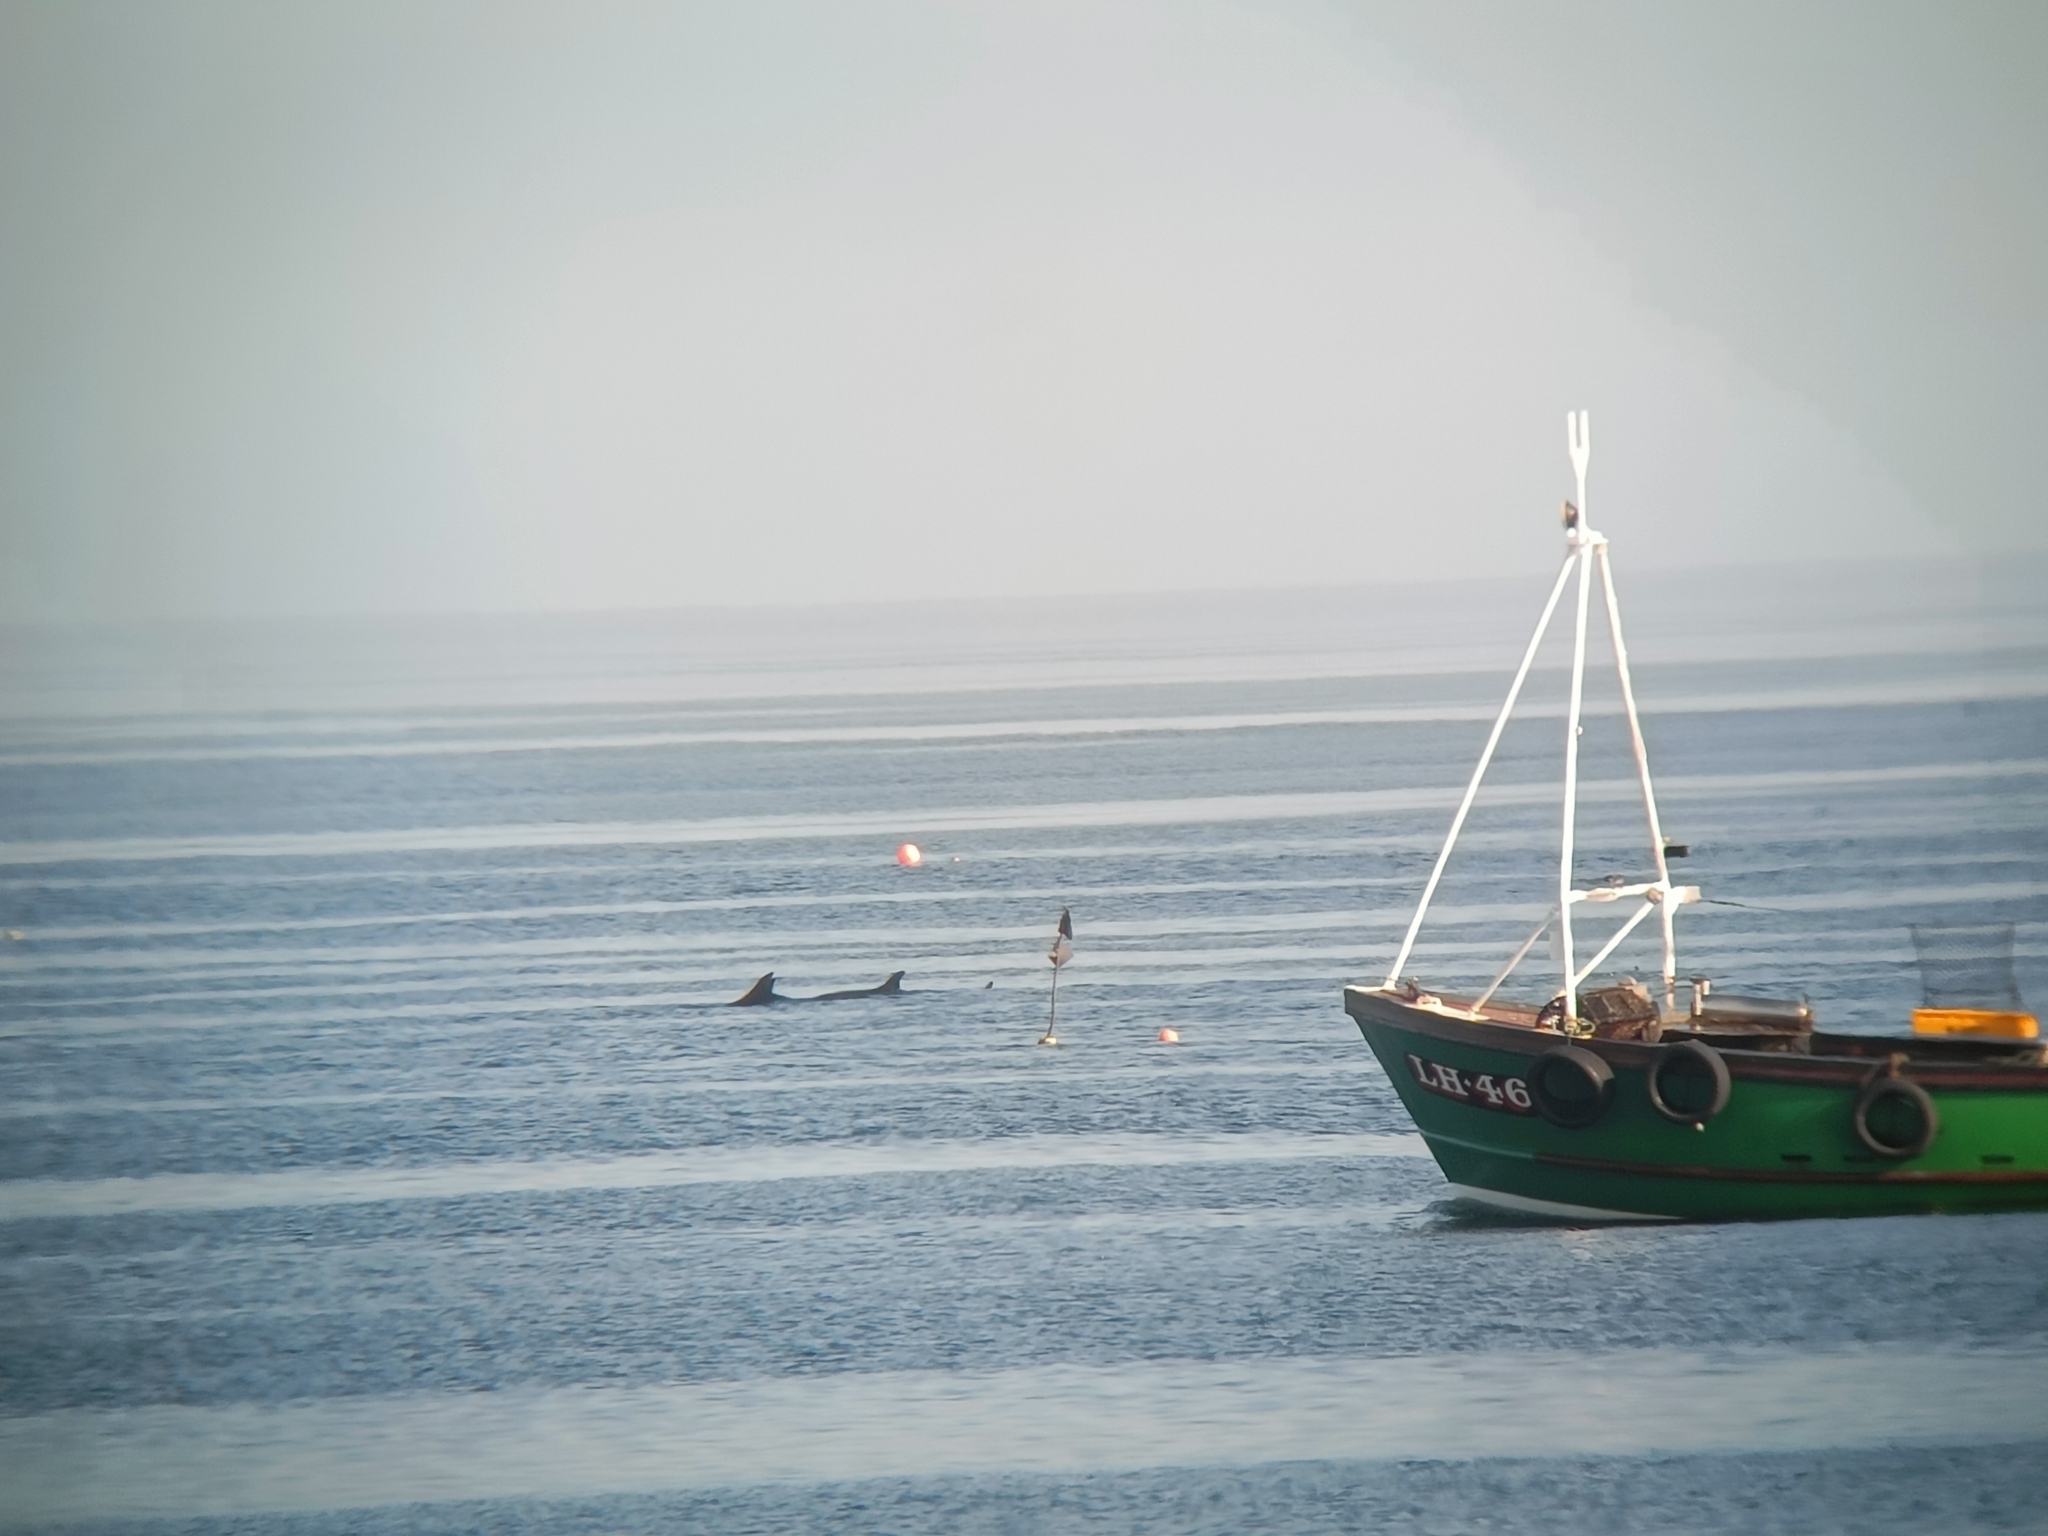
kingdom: Animalia
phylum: Chordata
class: Mammalia
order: Cetacea
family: Delphinidae
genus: Tursiops
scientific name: Tursiops truncatus
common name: Bottlenose dolphin
